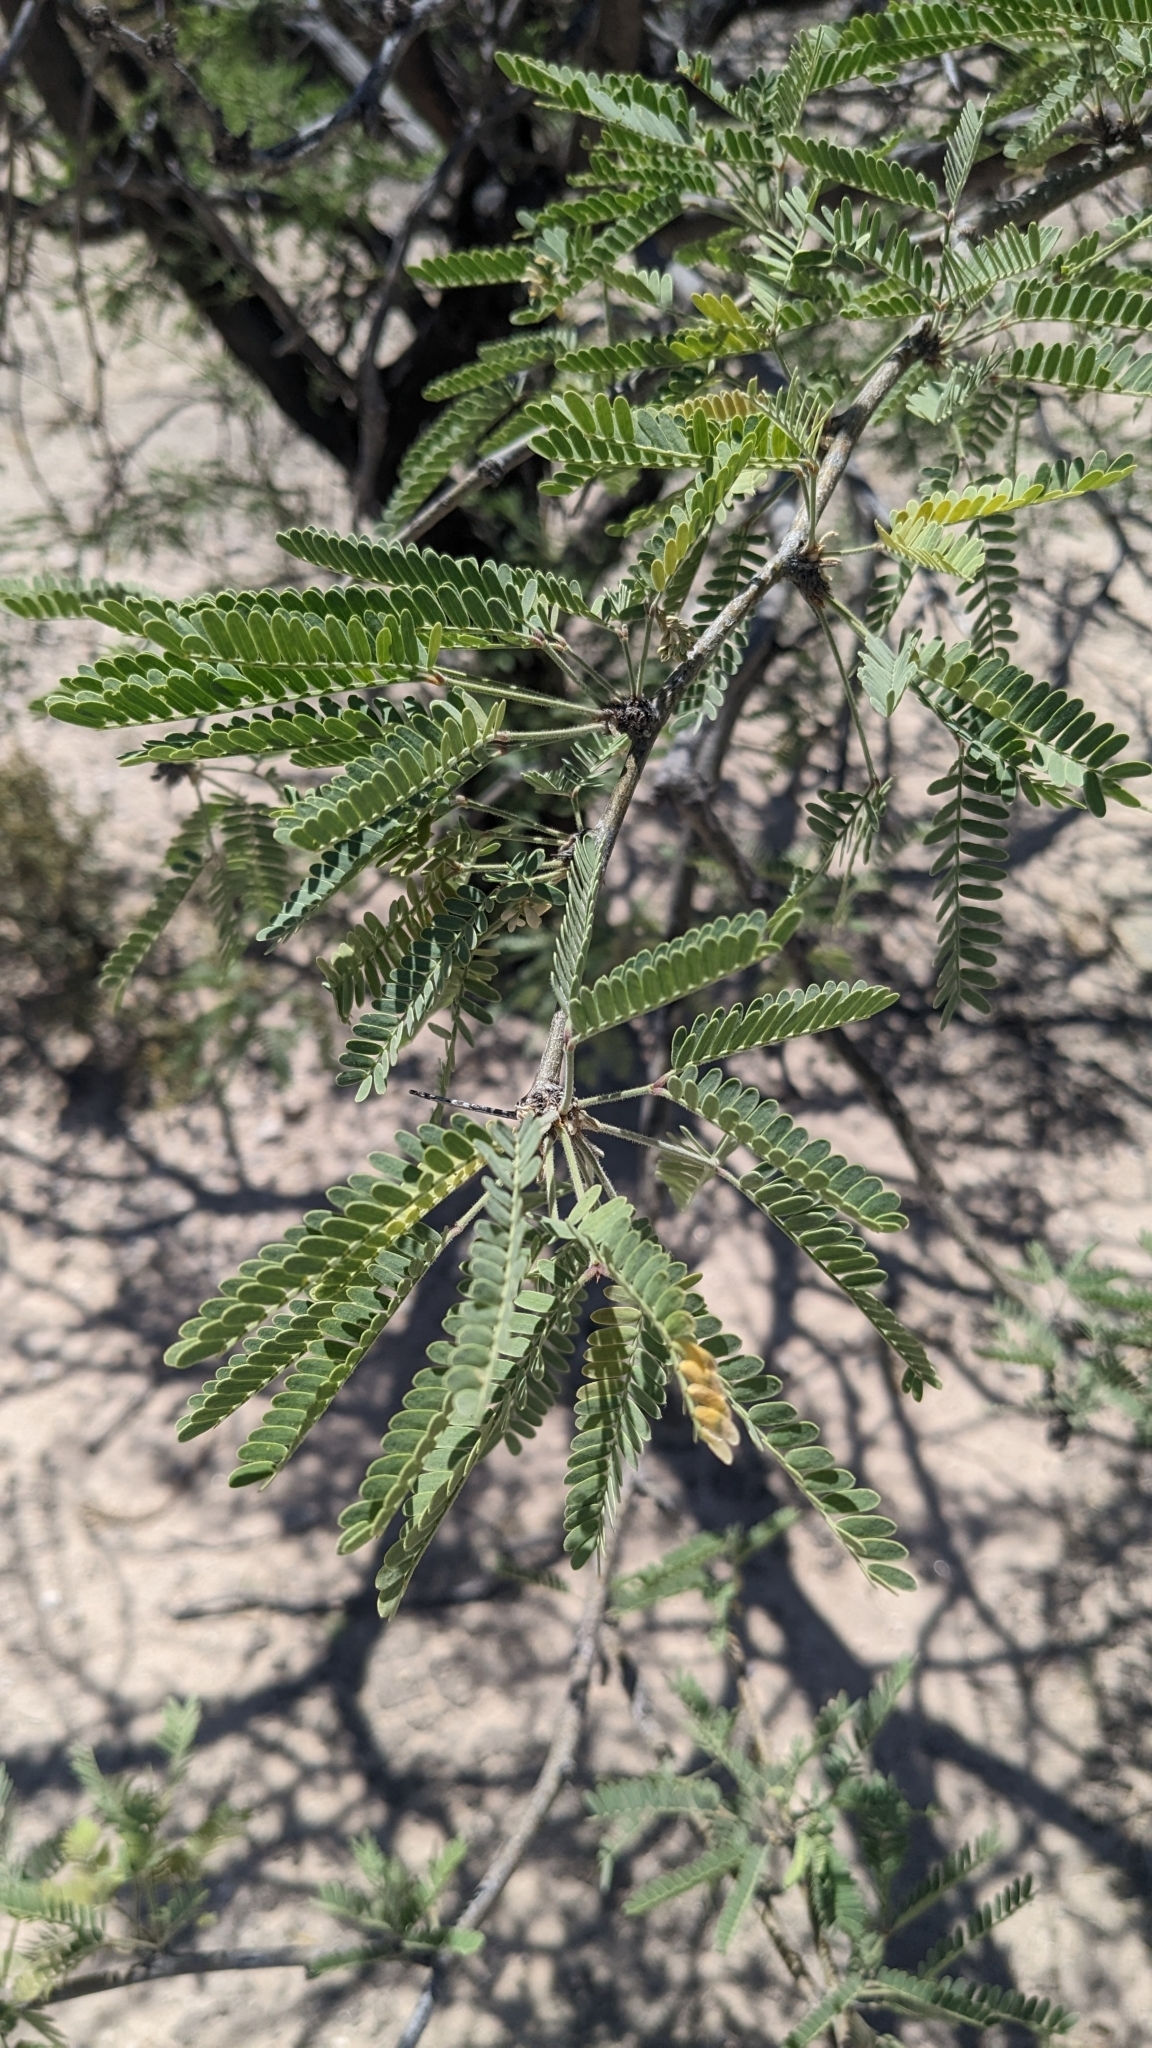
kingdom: Plantae
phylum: Tracheophyta
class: Magnoliopsida
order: Fabales
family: Fabaceae
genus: Prosopis
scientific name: Prosopis velutina
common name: Velvet mesquite
